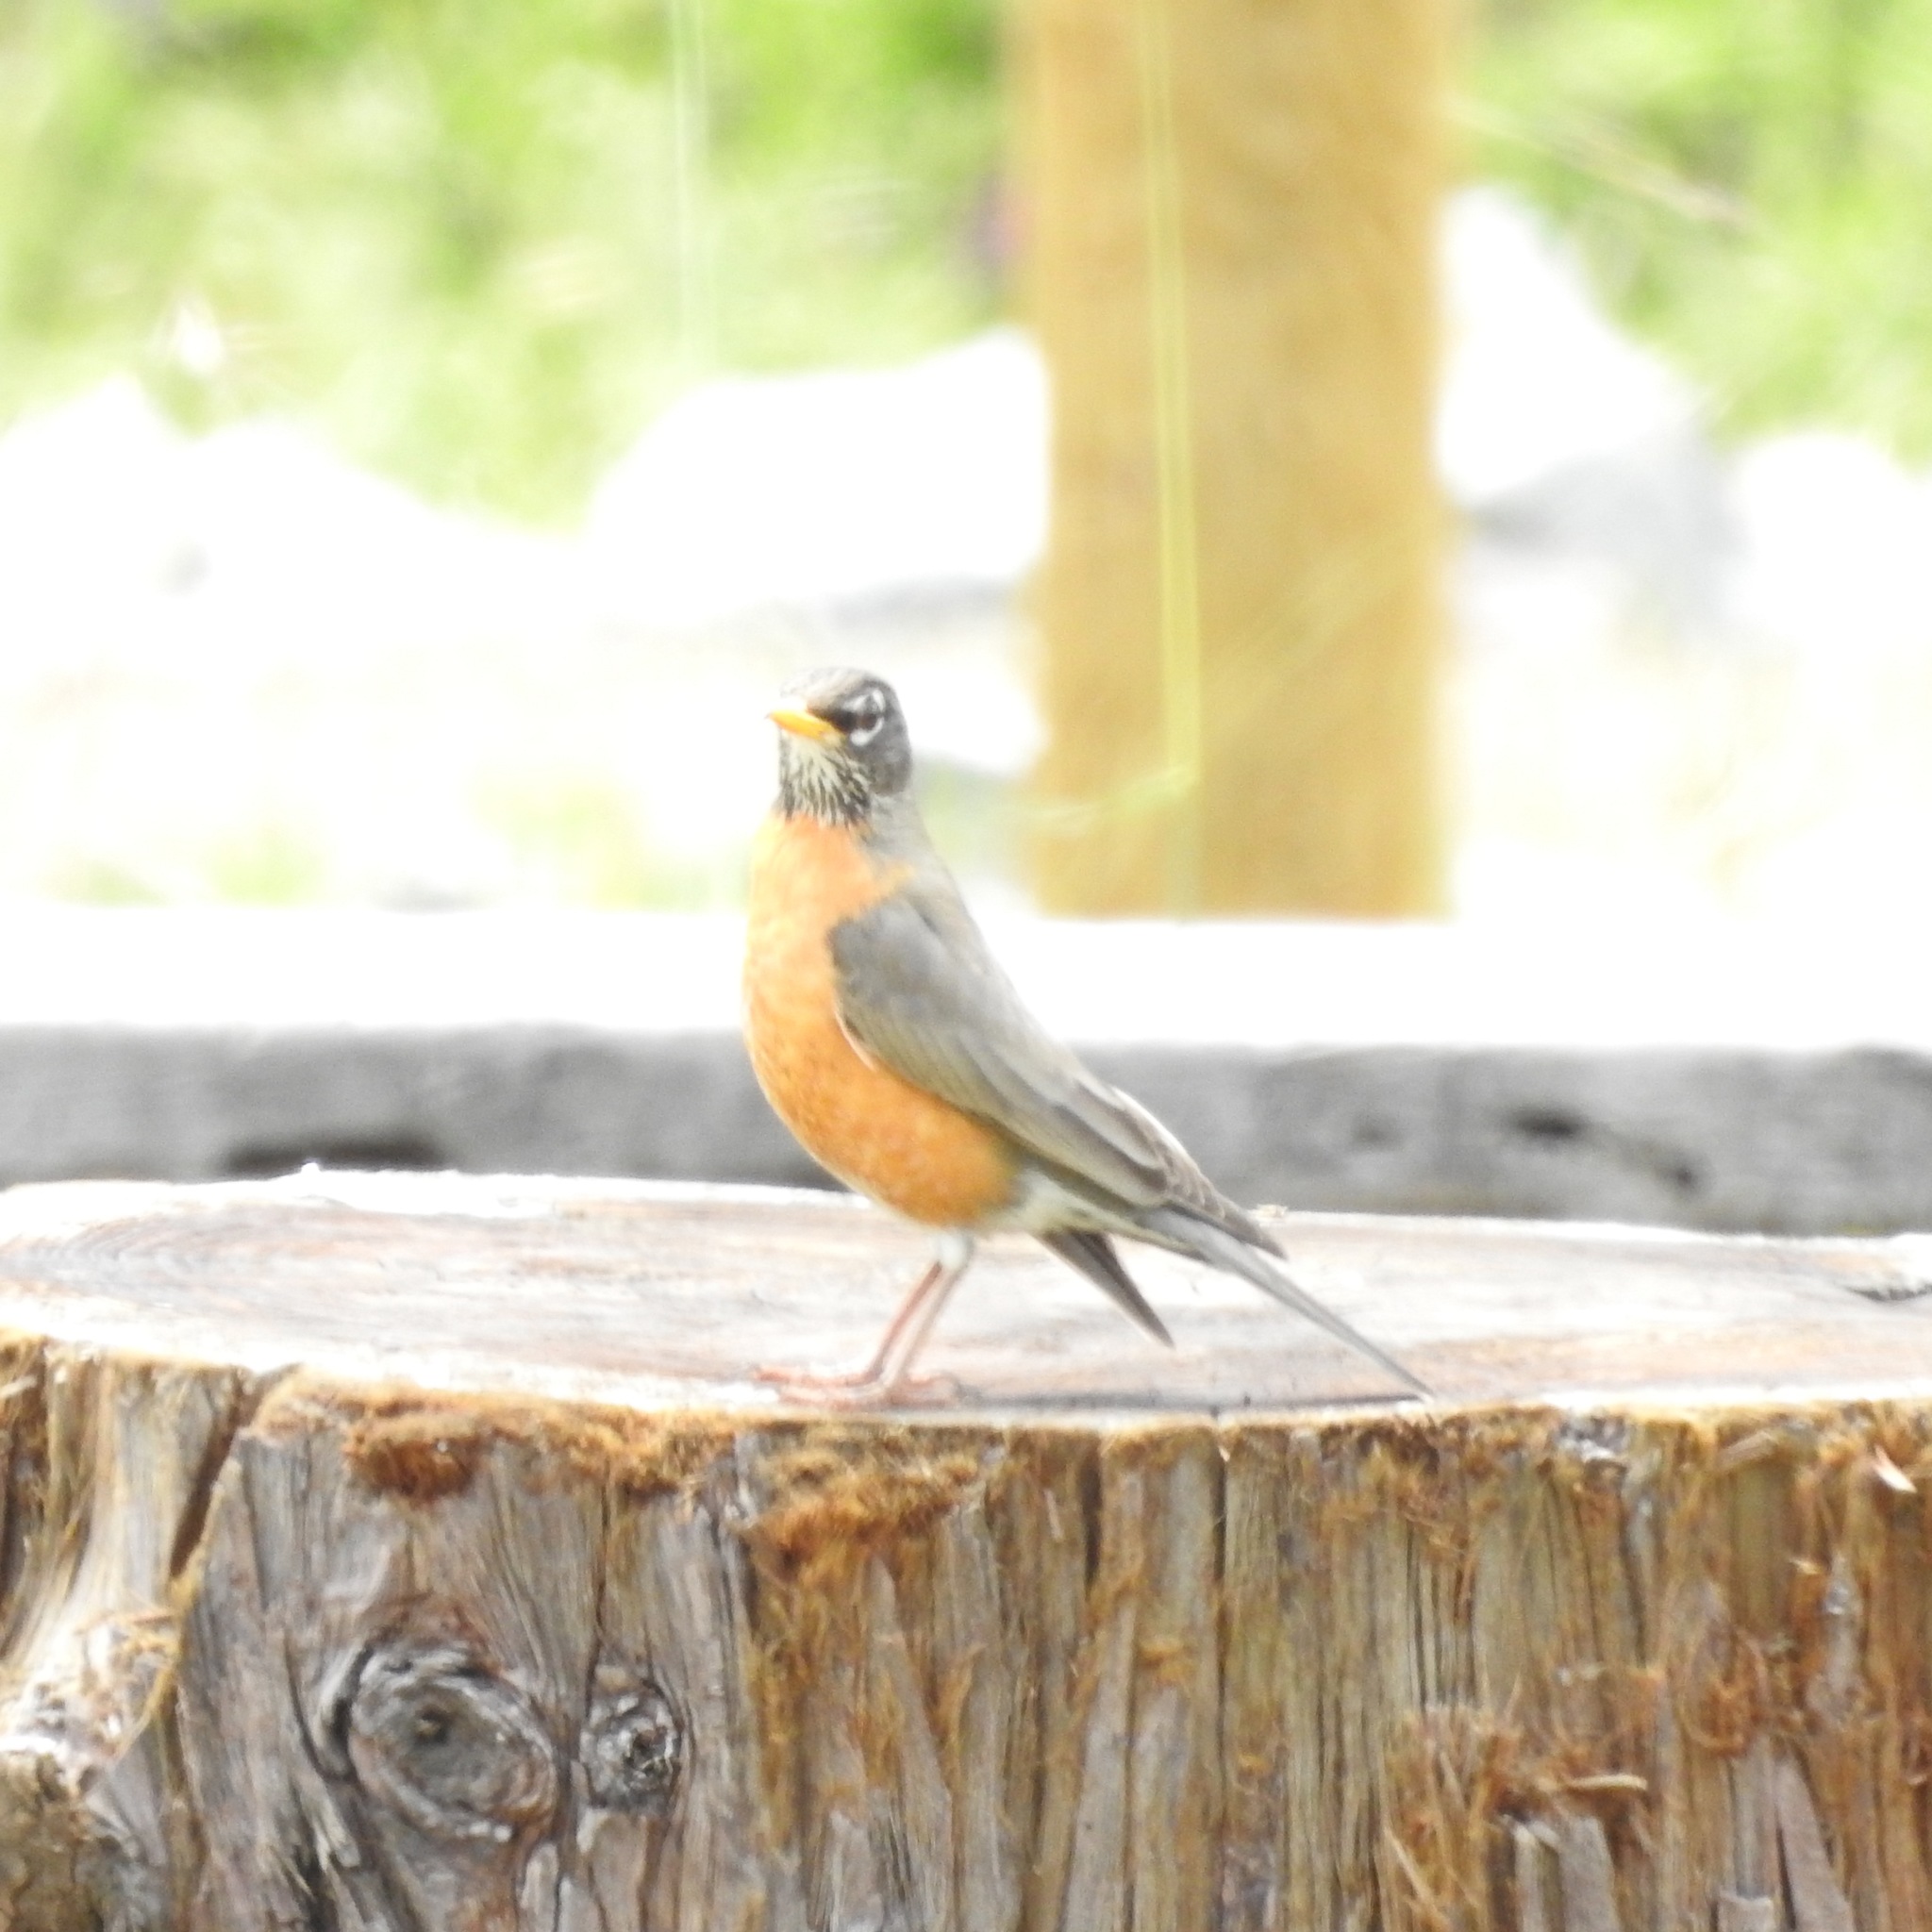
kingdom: Animalia
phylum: Chordata
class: Aves
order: Passeriformes
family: Turdidae
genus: Turdus
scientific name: Turdus migratorius
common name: American robin
